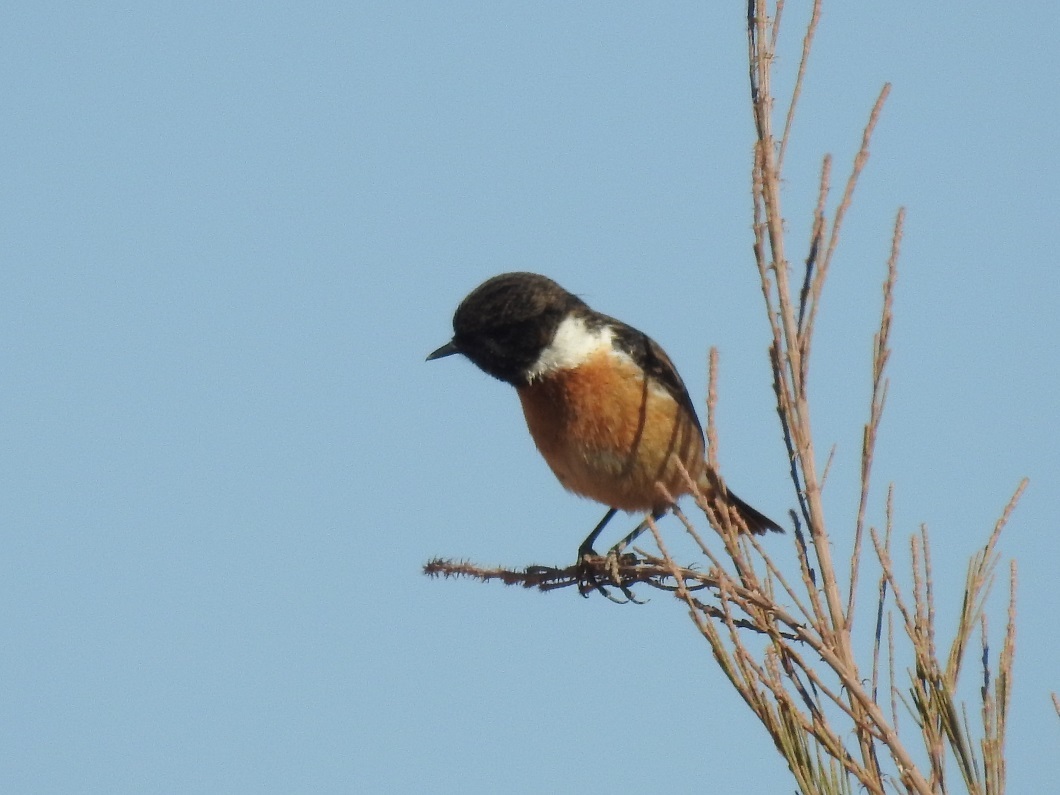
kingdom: Animalia
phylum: Chordata
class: Aves
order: Passeriformes
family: Muscicapidae
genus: Saxicola
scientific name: Saxicola rubicola
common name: European stonechat
